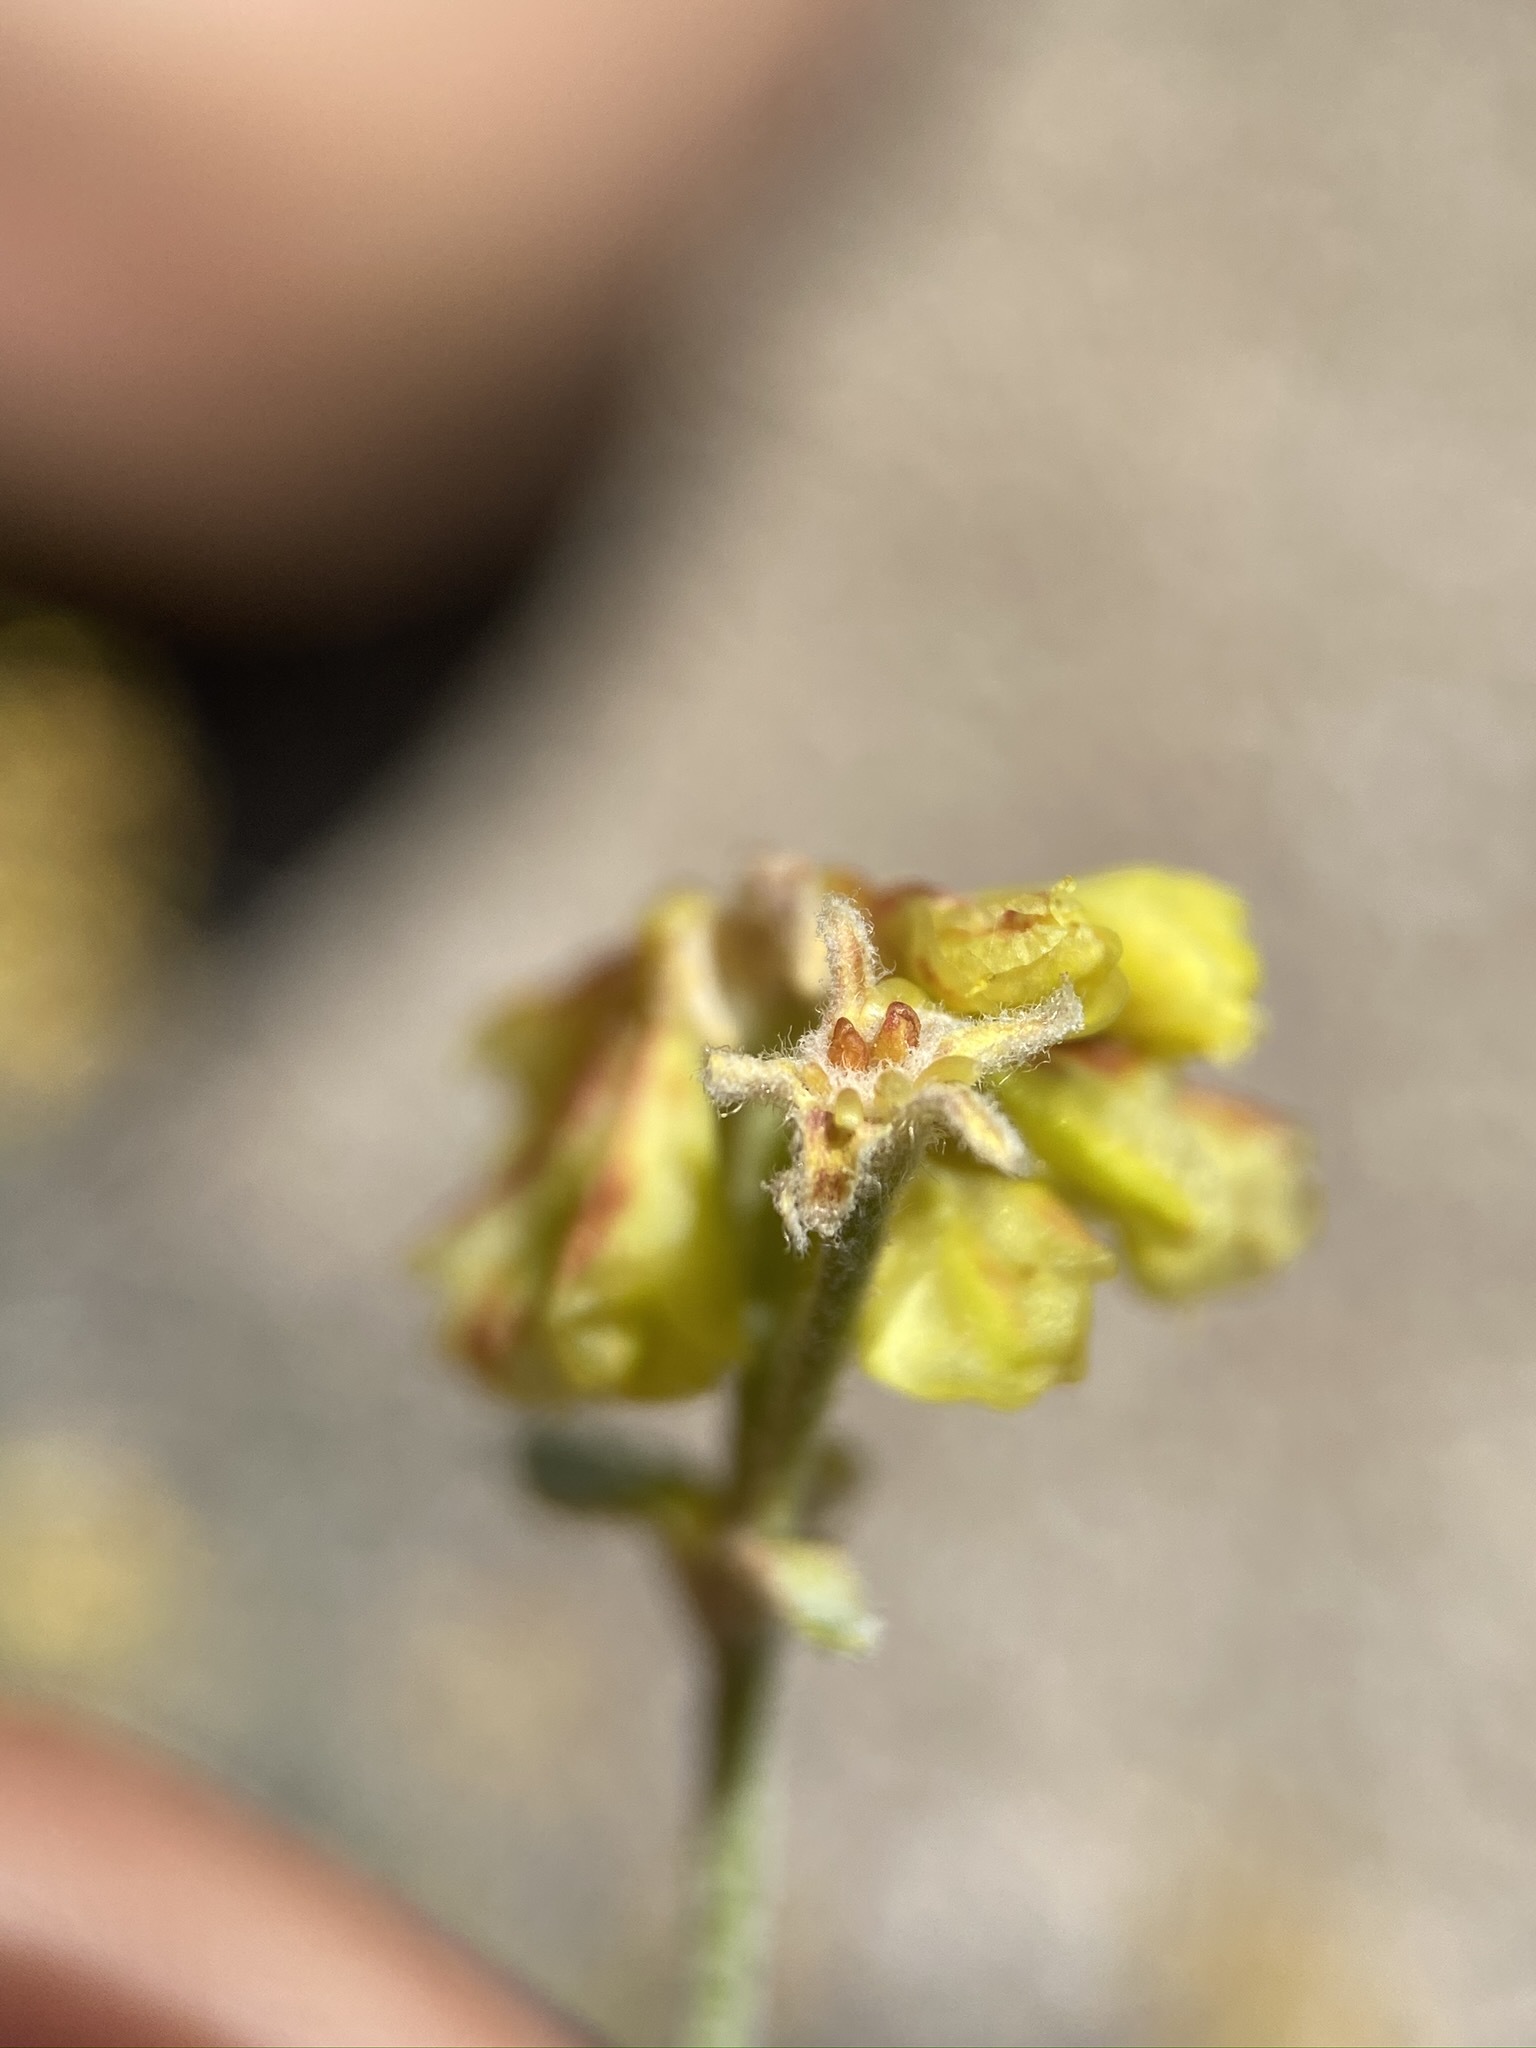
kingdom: Plantae
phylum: Tracheophyta
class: Magnoliopsida
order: Caryophyllales
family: Polygonaceae
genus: Eriogonum
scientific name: Eriogonum umbellatum
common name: Sulfur-buckwheat
